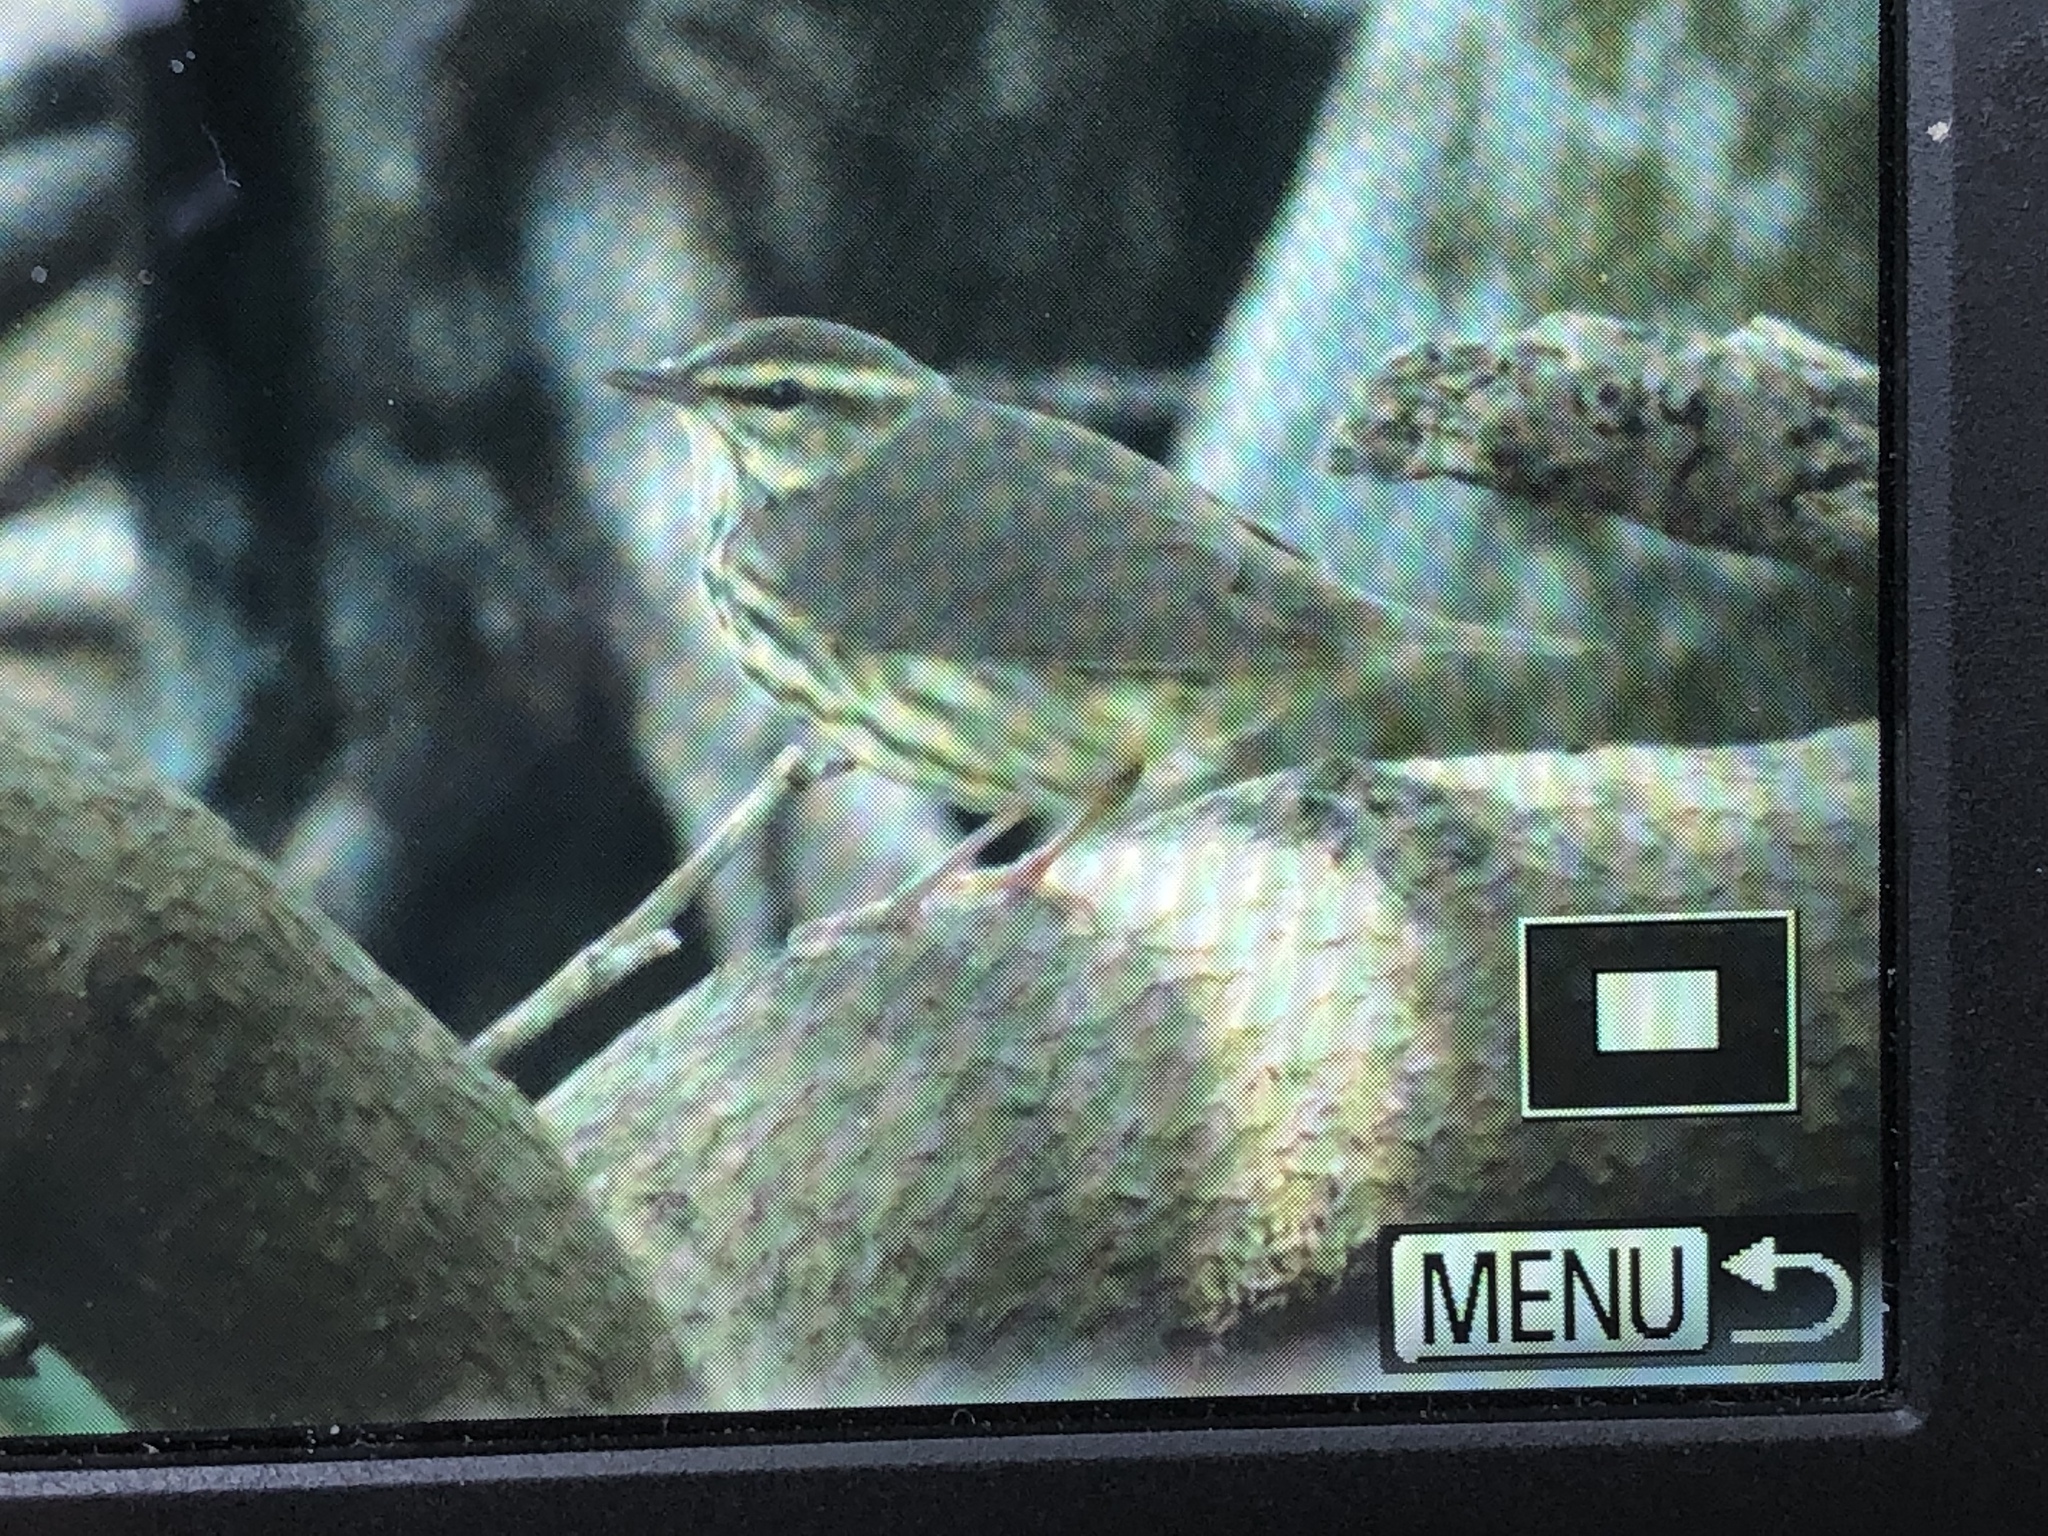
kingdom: Animalia
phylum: Chordata
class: Aves
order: Passeriformes
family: Parulidae
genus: Parkesia
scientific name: Parkesia noveboracensis
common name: Northern waterthrush
